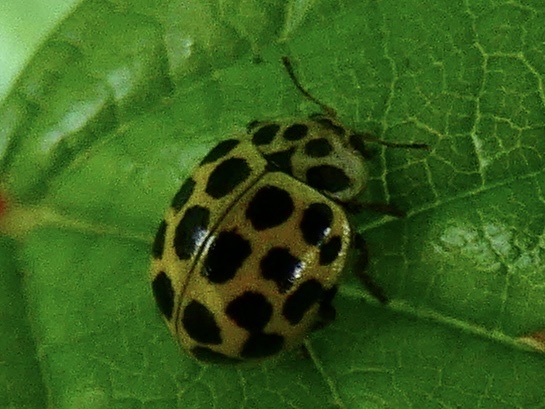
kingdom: Animalia
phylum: Arthropoda
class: Insecta
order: Coleoptera
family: Coccinellidae
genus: Psyllobora
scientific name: Psyllobora vigintiduopunctata
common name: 22-spot ladybird
